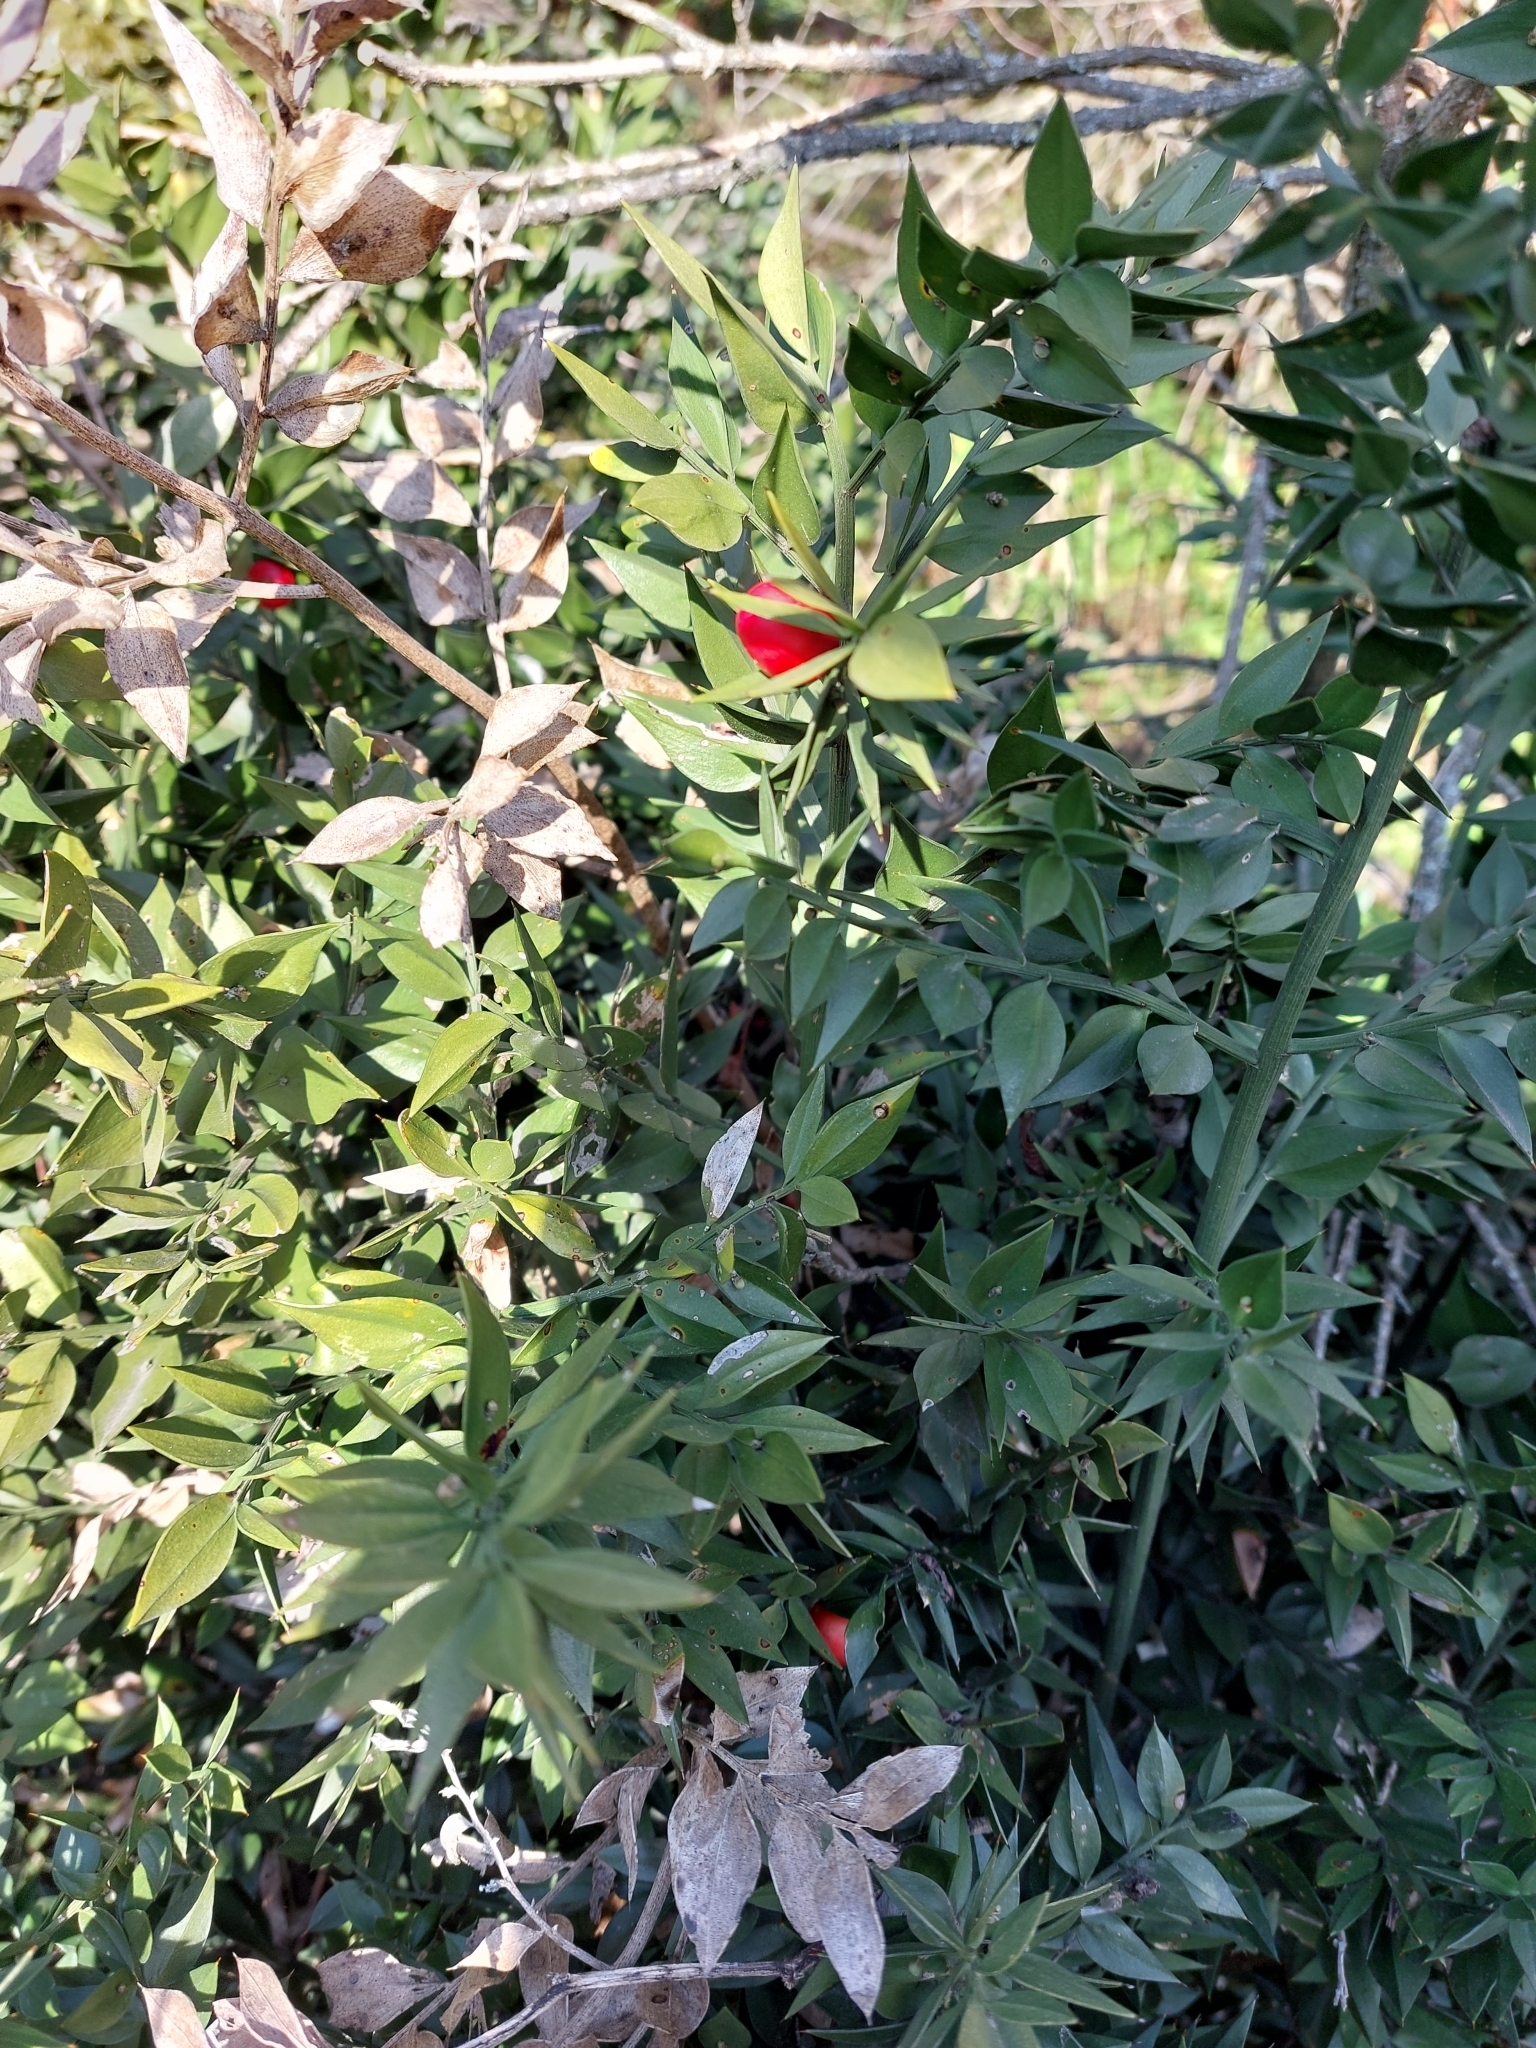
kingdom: Plantae
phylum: Tracheophyta
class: Liliopsida
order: Asparagales
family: Asparagaceae
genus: Ruscus
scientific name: Ruscus aculeatus
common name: Butcher's-broom
